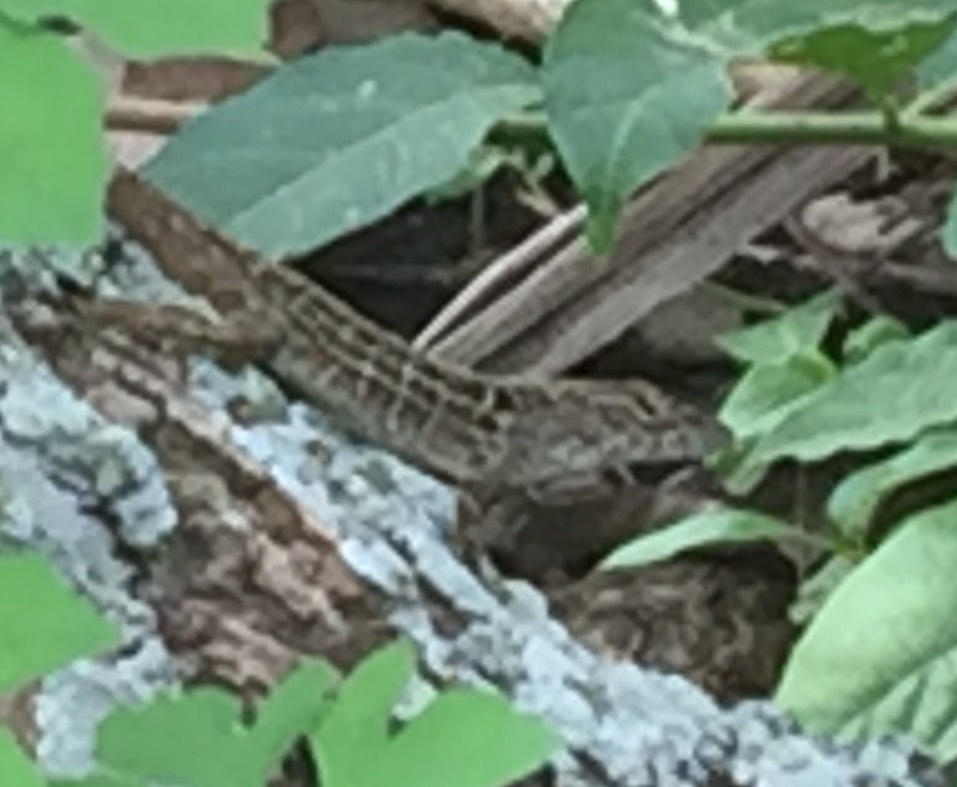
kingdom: Animalia
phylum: Chordata
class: Squamata
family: Dactyloidae
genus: Anolis
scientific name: Anolis sagrei
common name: Brown anole
